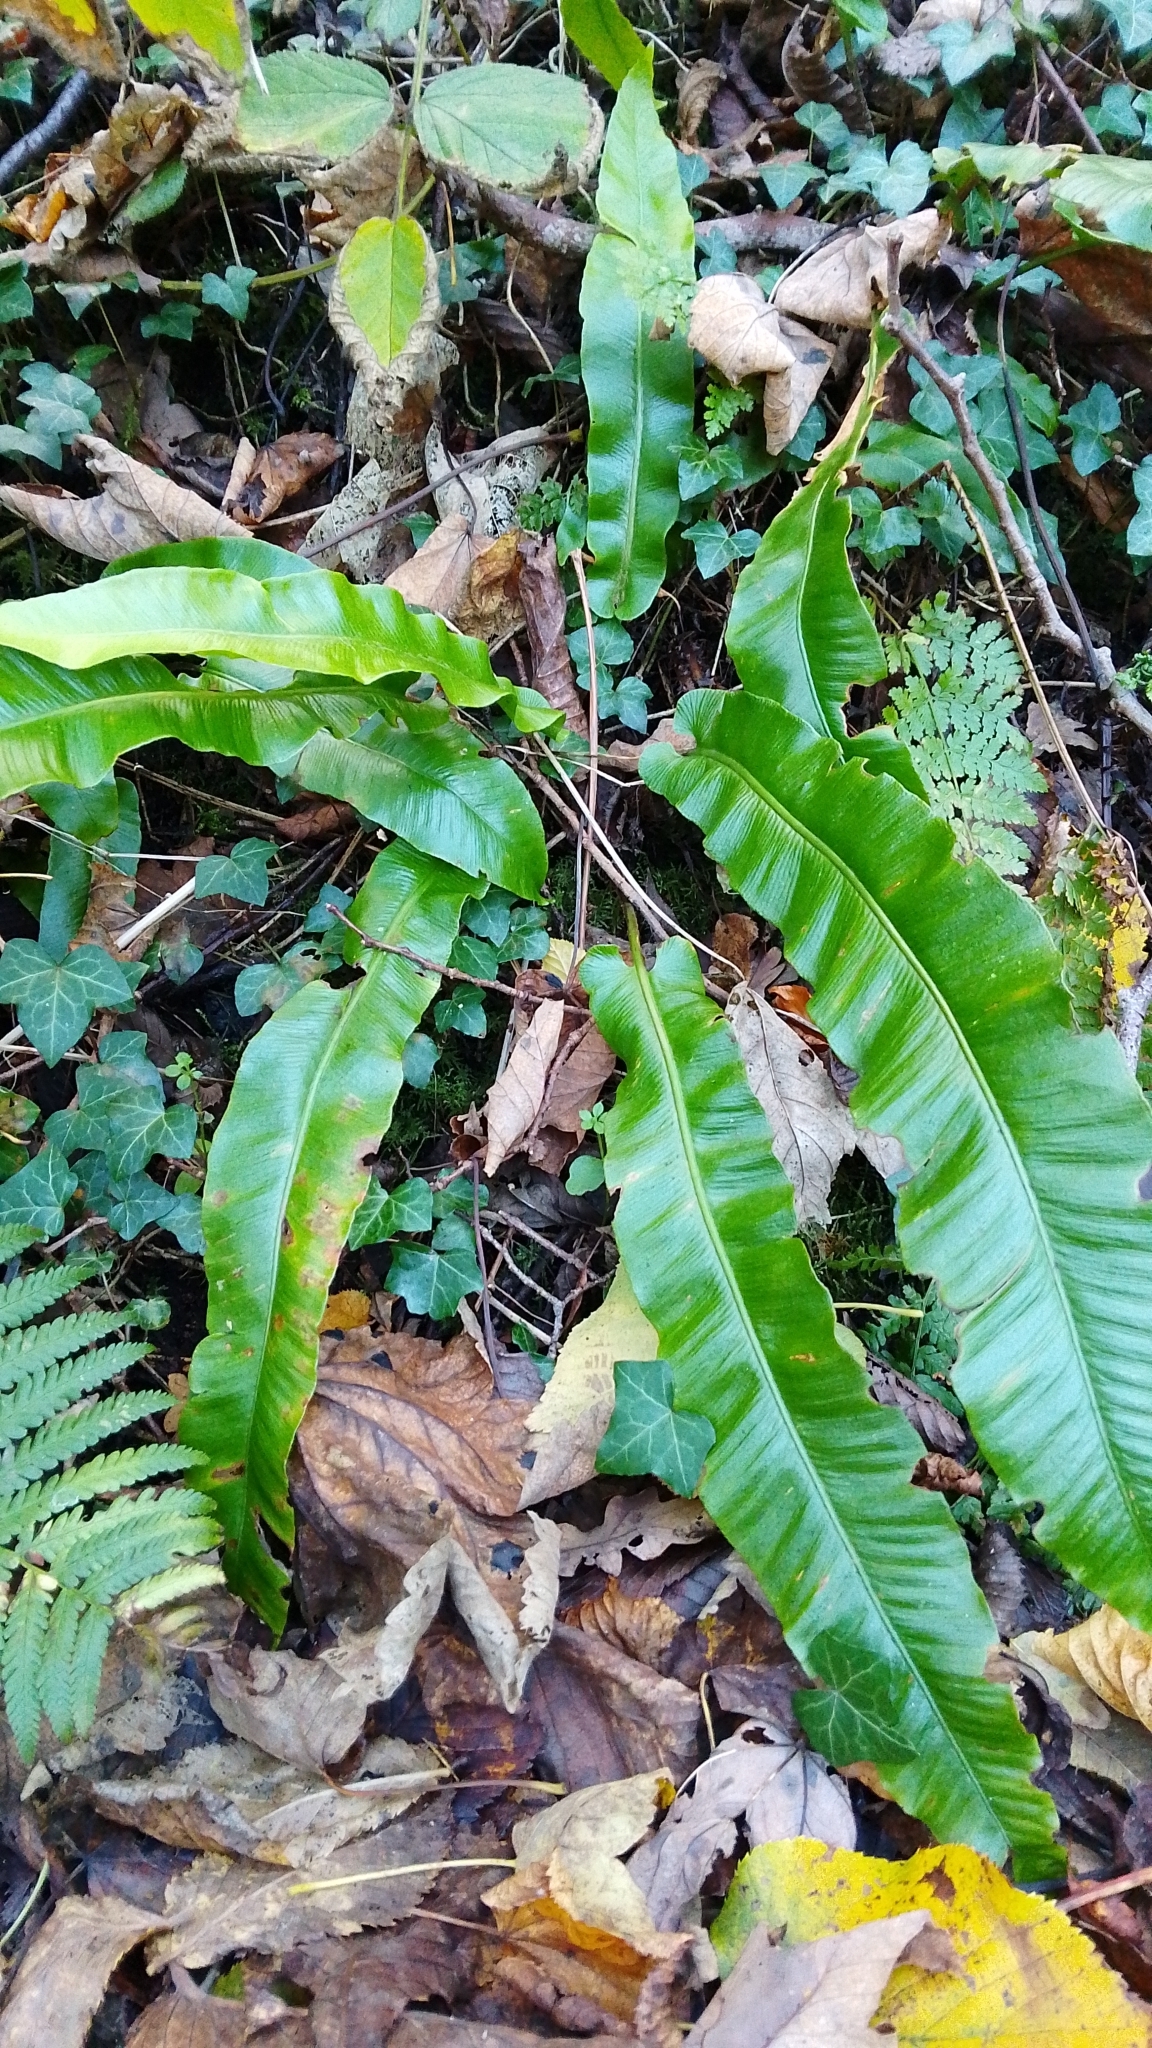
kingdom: Plantae
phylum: Tracheophyta
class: Polypodiopsida
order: Polypodiales
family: Aspleniaceae
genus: Asplenium
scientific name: Asplenium scolopendrium
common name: Hart's-tongue fern
